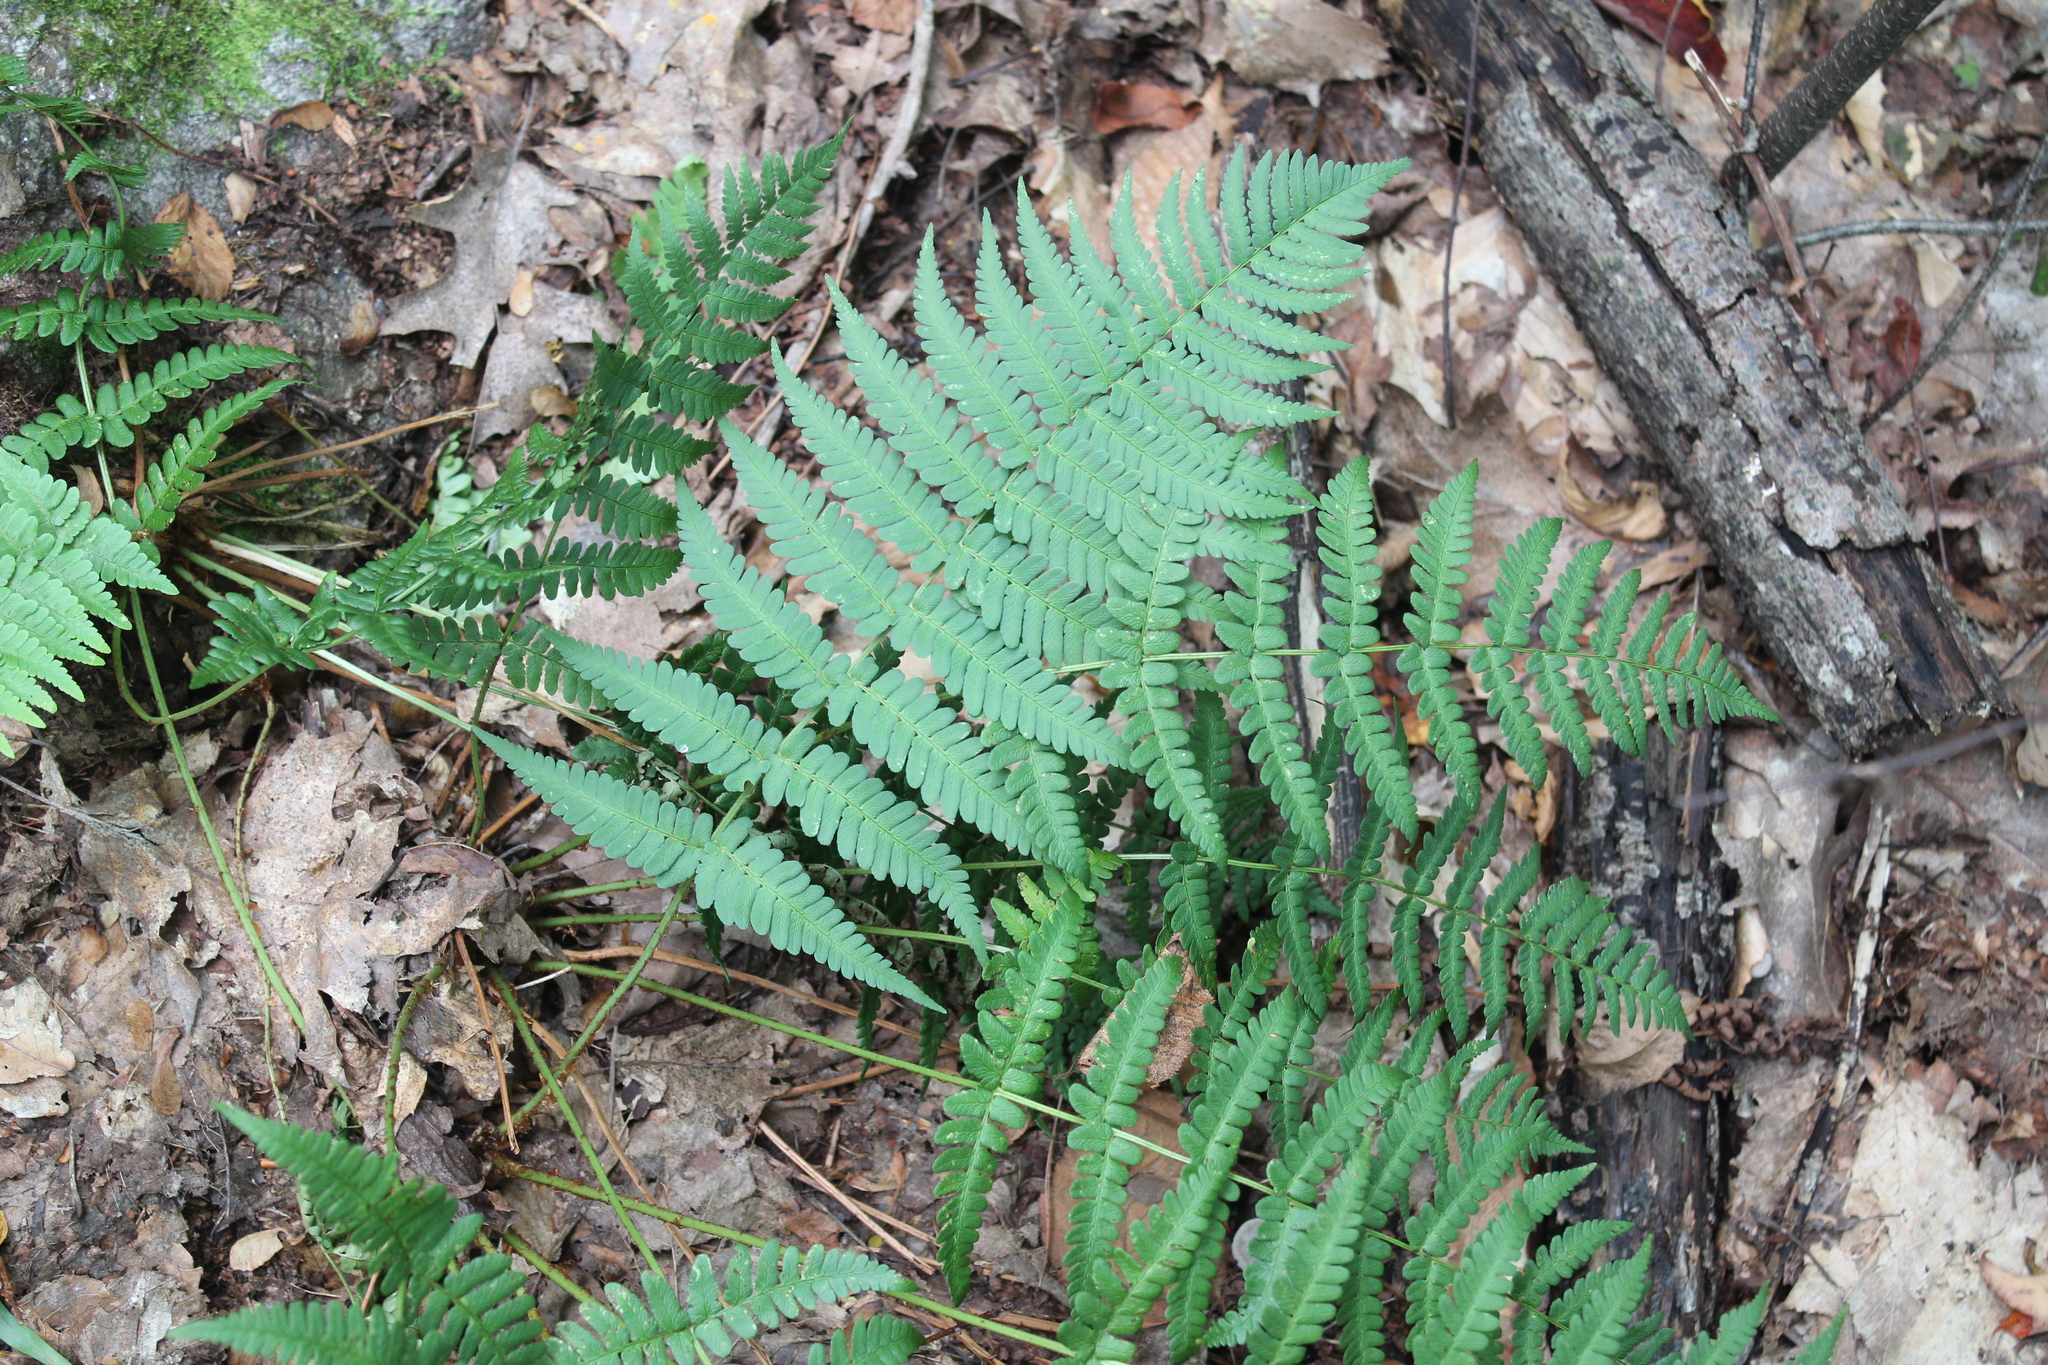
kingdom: Plantae
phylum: Tracheophyta
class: Polypodiopsida
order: Polypodiales
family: Dryopteridaceae
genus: Dryopteris
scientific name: Dryopteris marginalis
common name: Marginal wood fern
